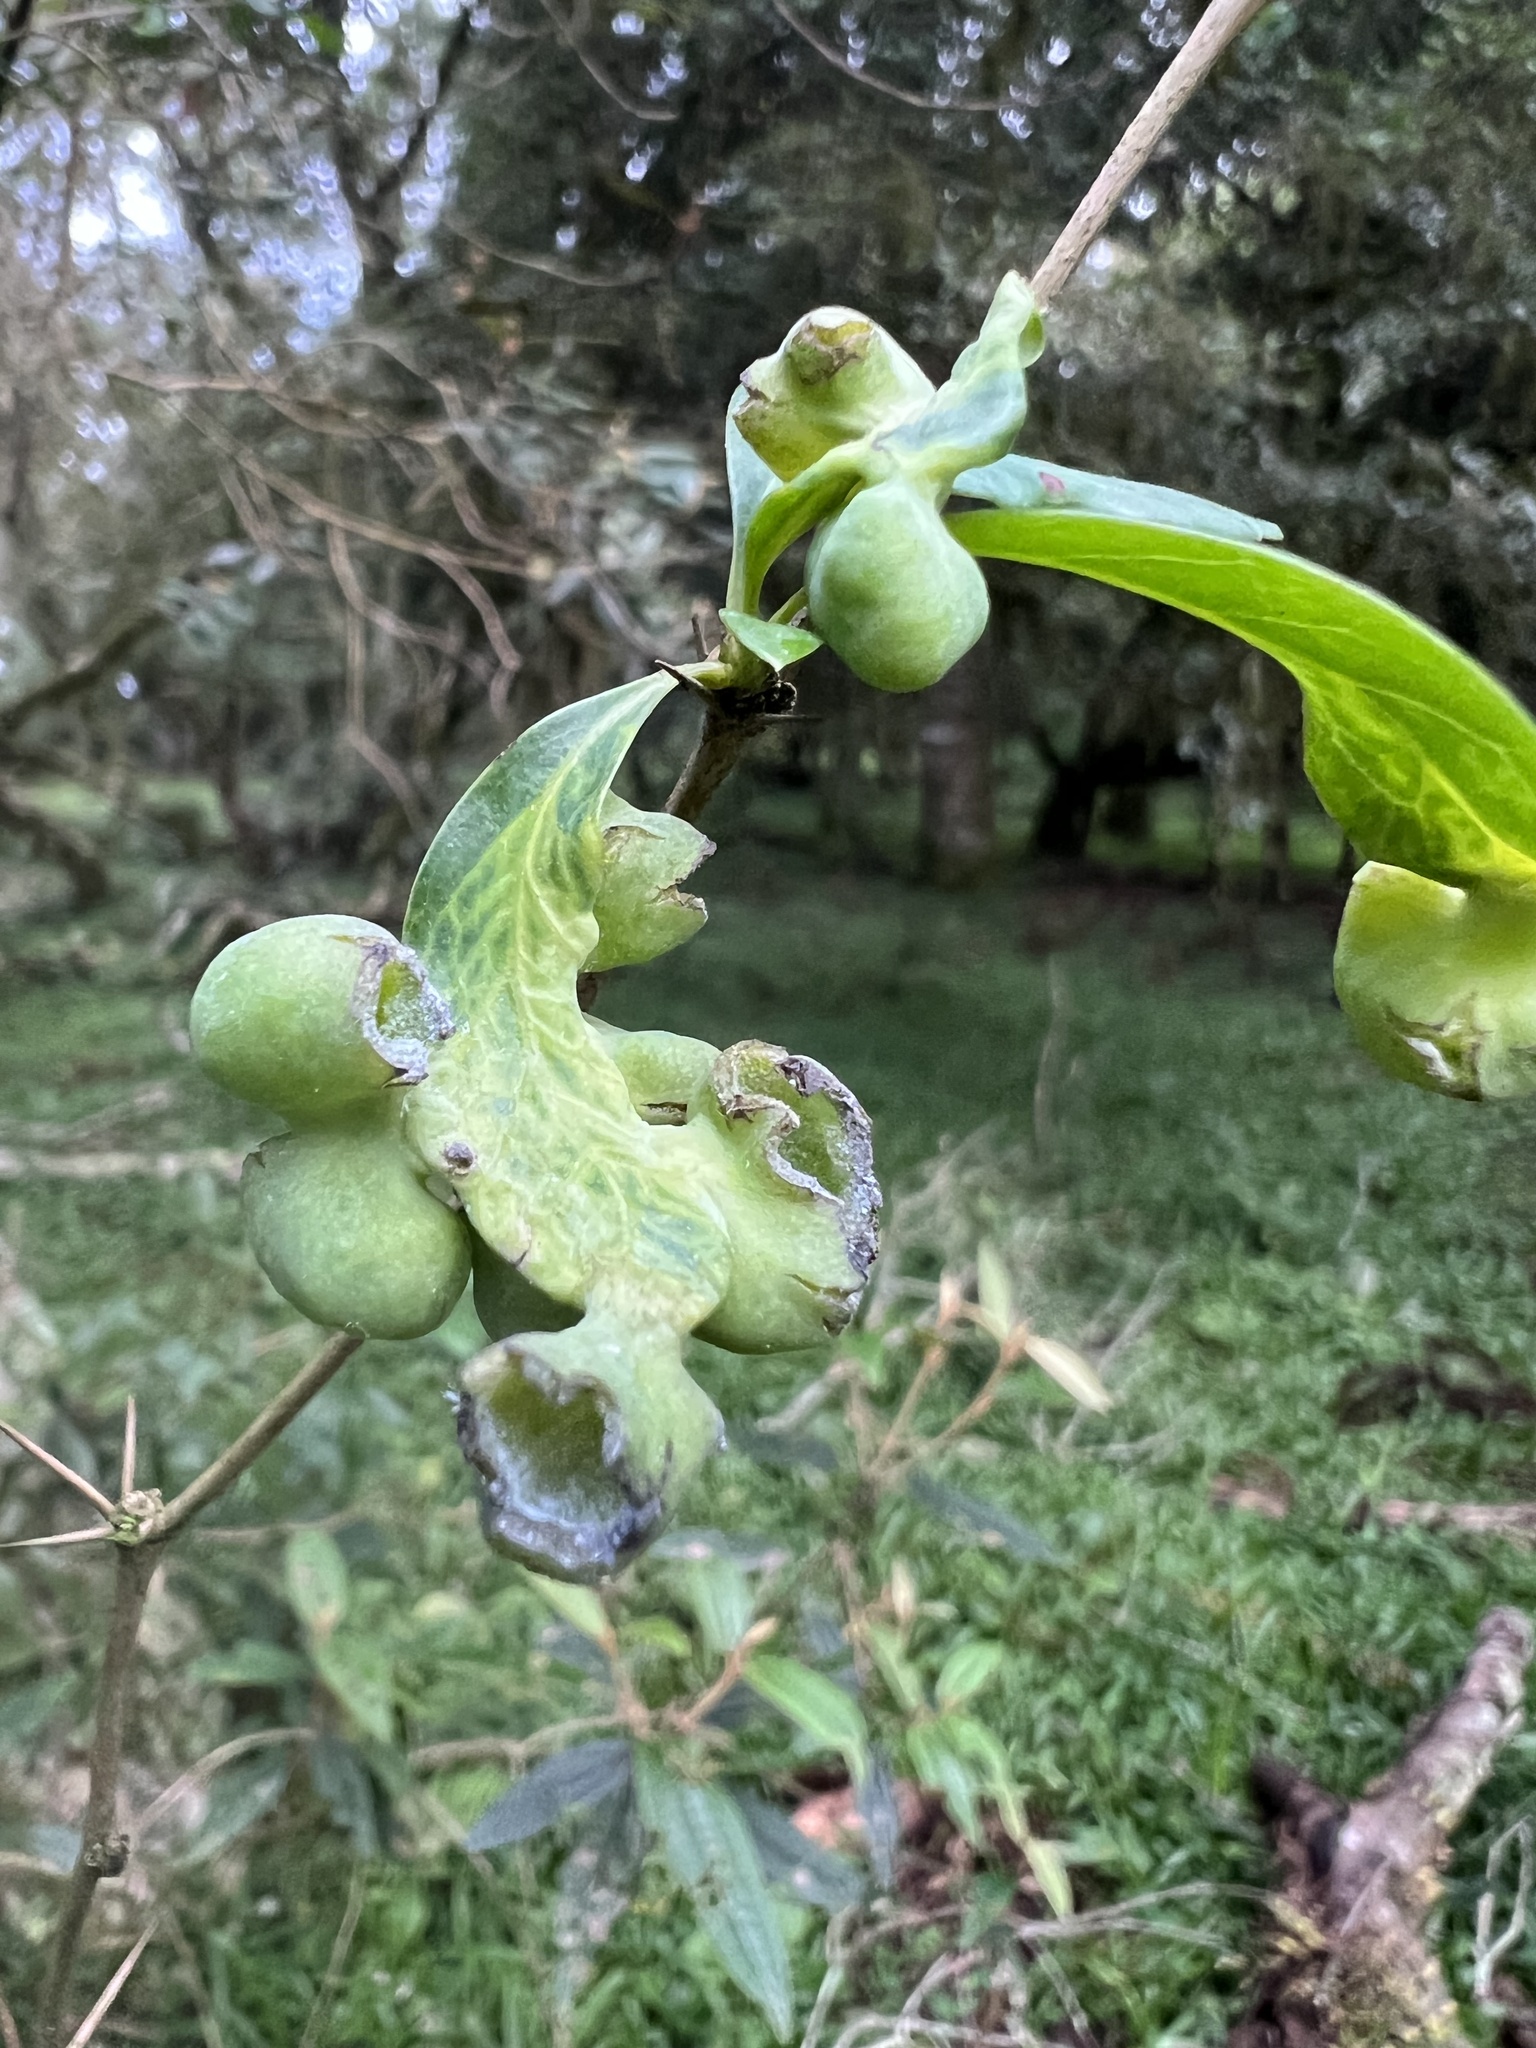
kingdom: Plantae
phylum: Tracheophyta
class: Magnoliopsida
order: Ranunculales
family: Berberidaceae
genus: Berberis
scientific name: Berberis laurina
